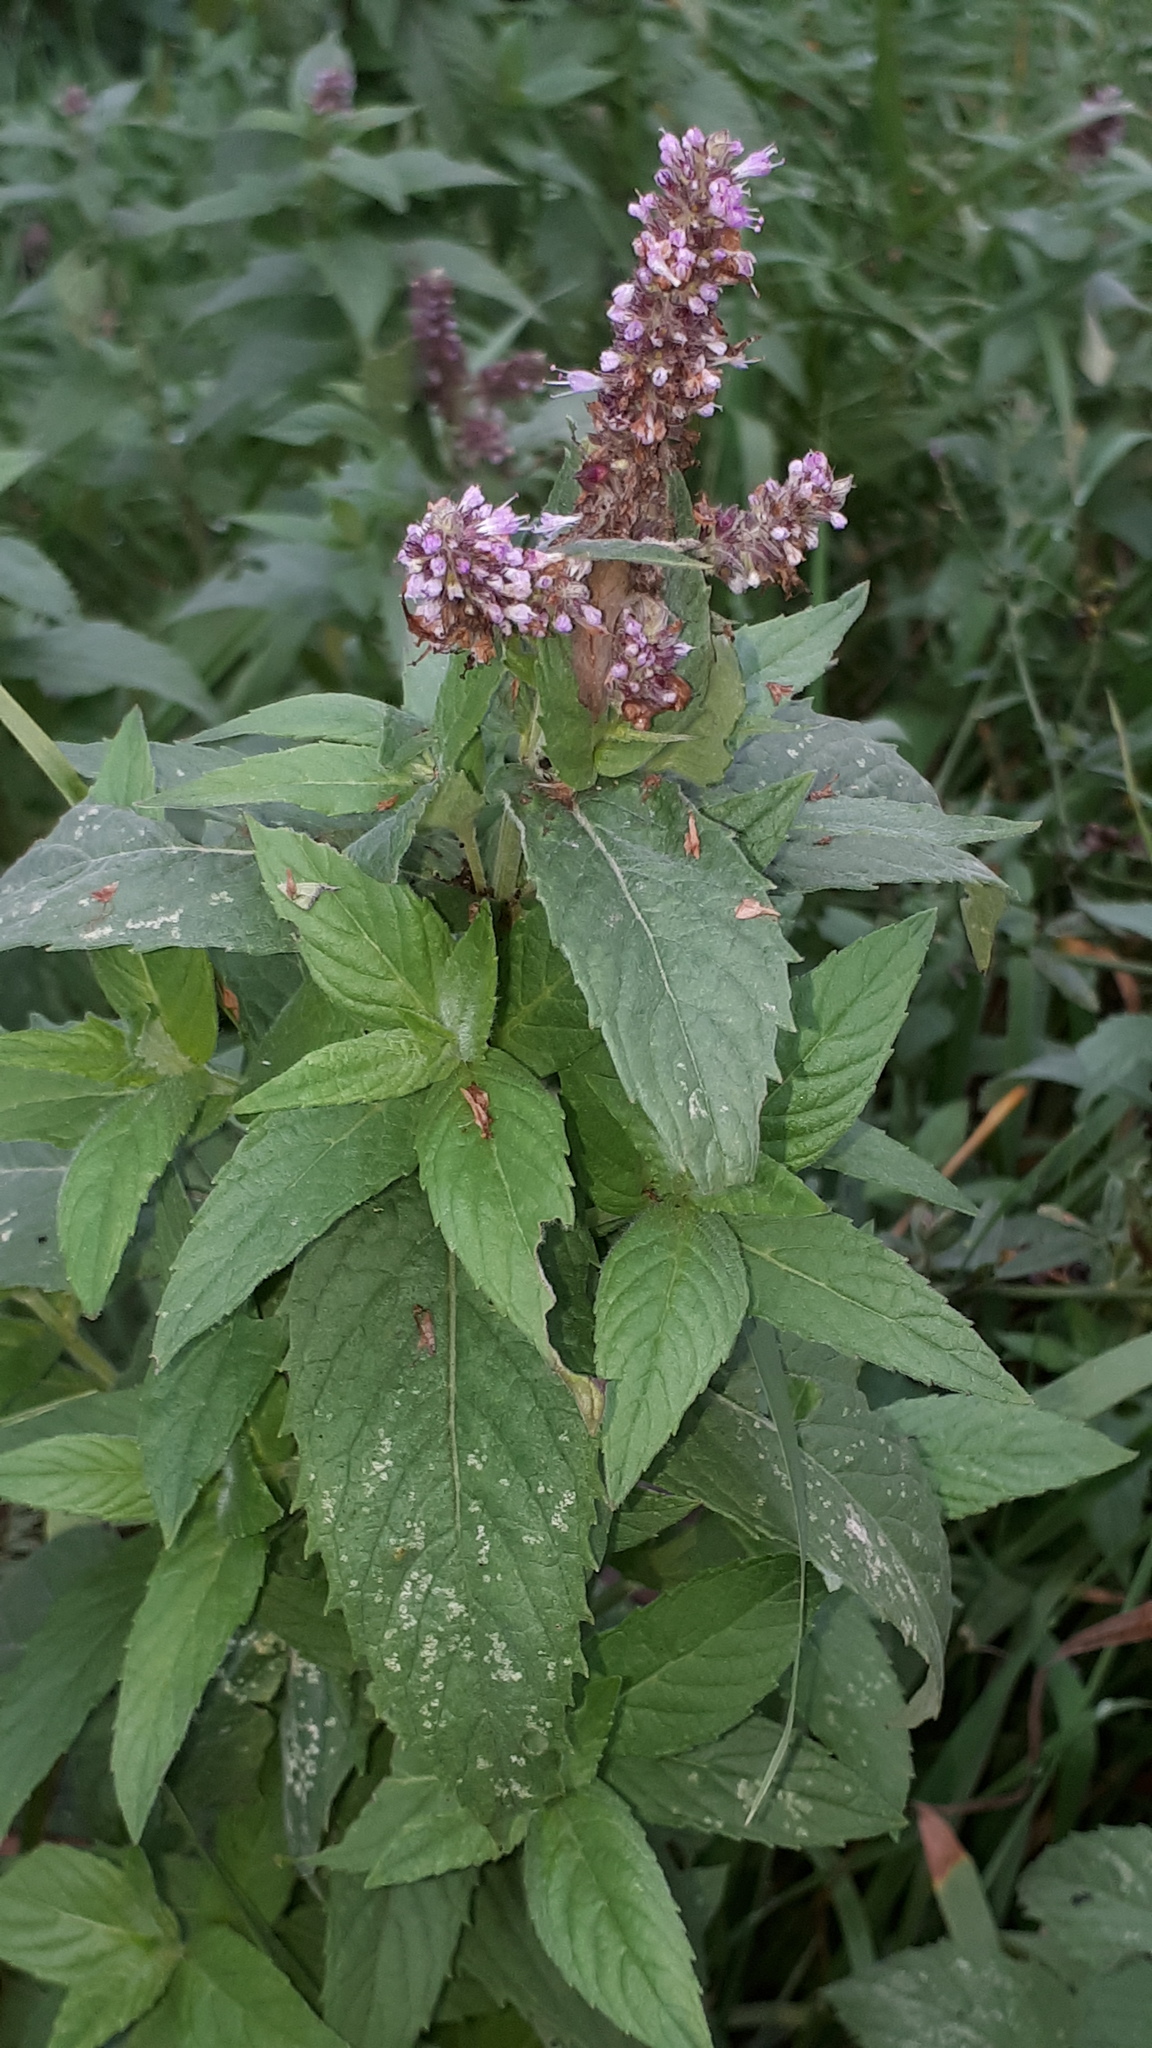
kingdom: Plantae
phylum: Tracheophyta
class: Magnoliopsida
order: Lamiales
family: Lamiaceae
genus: Mentha
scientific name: Mentha longifolia
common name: Horse mint
